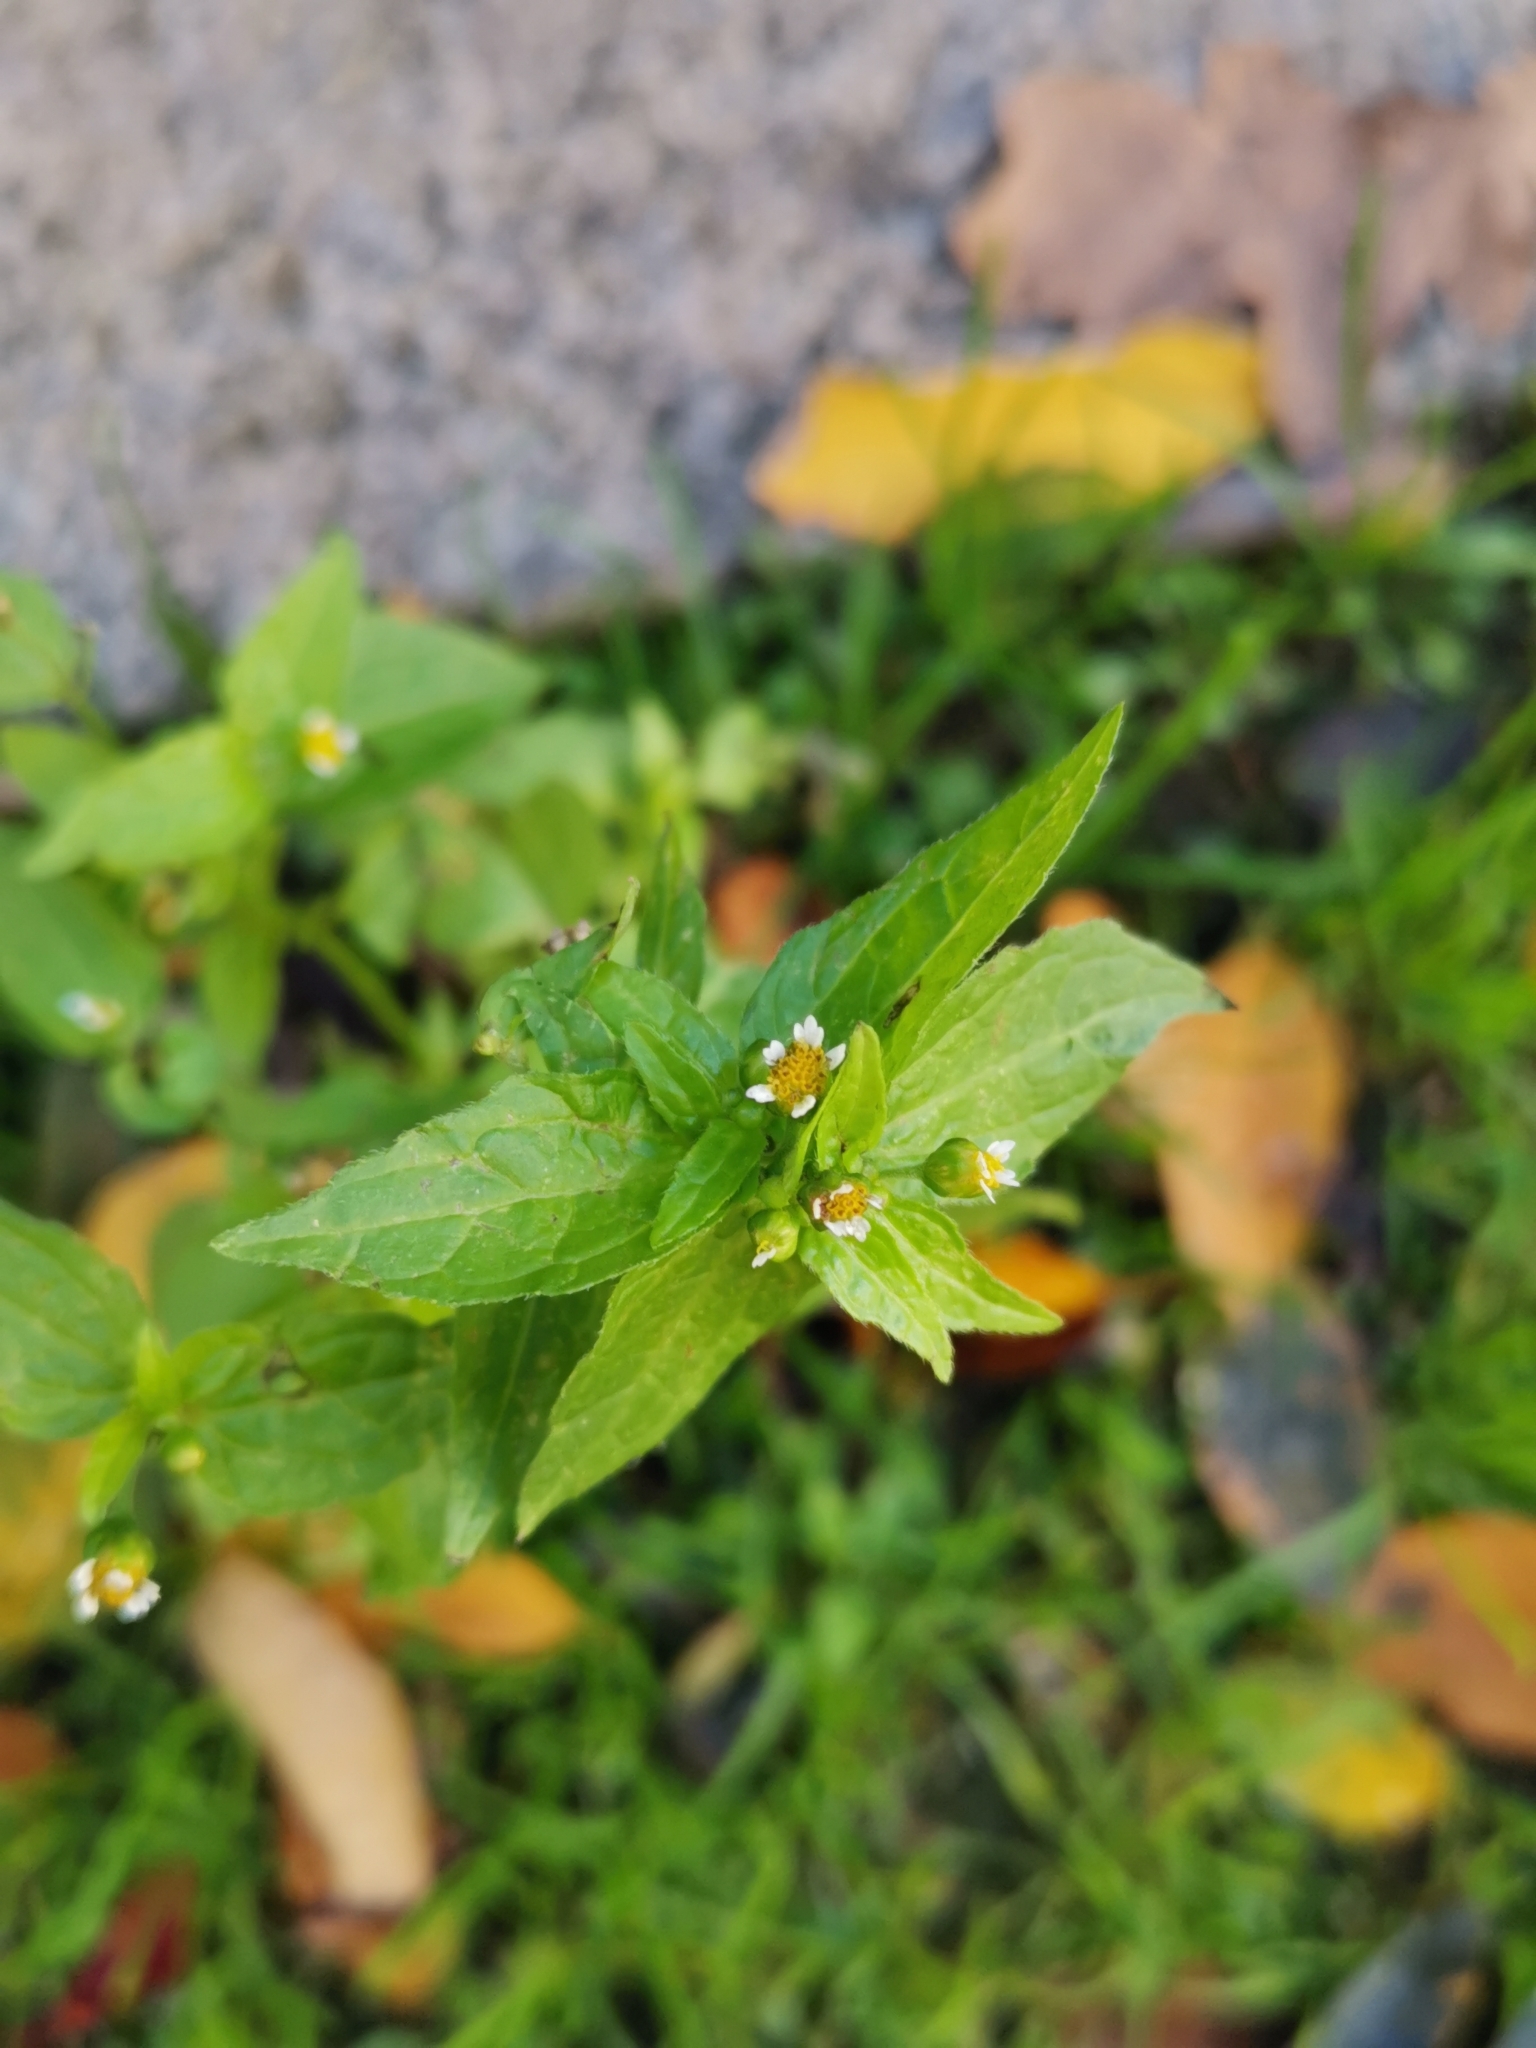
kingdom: Plantae
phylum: Tracheophyta
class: Magnoliopsida
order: Asterales
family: Asteraceae
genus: Galinsoga
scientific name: Galinsoga parviflora
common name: Gallant soldier
